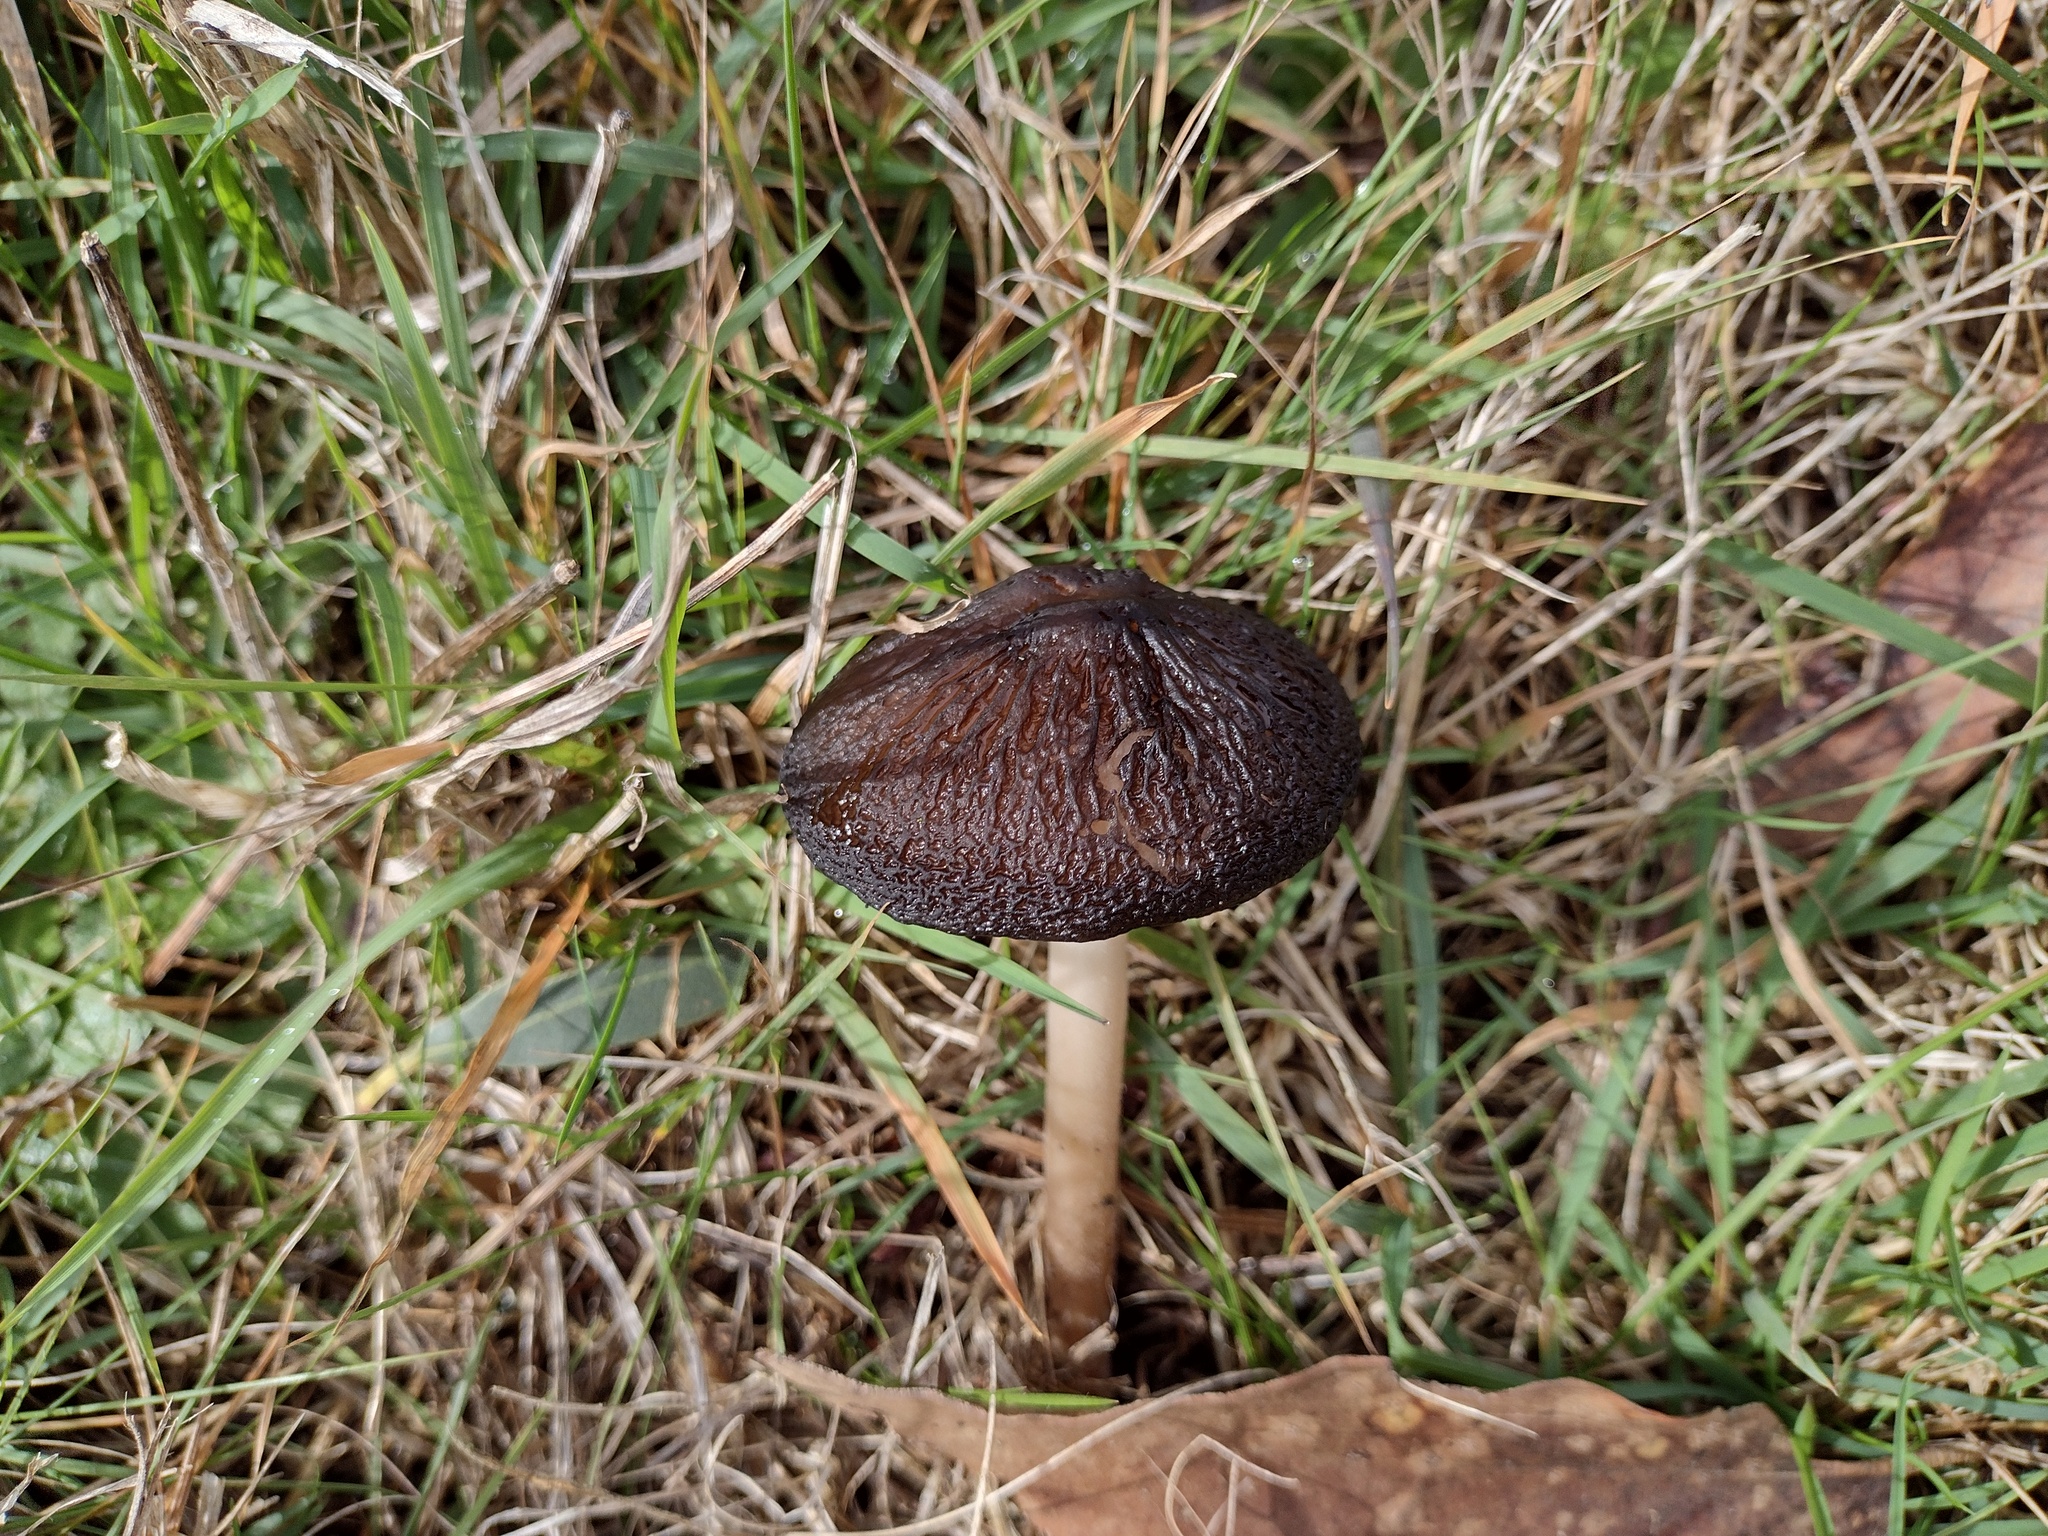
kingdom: Fungi
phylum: Basidiomycota
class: Agaricomycetes
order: Agaricales
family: Physalacriaceae
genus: Hymenopellis
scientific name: Hymenopellis gigaspora
